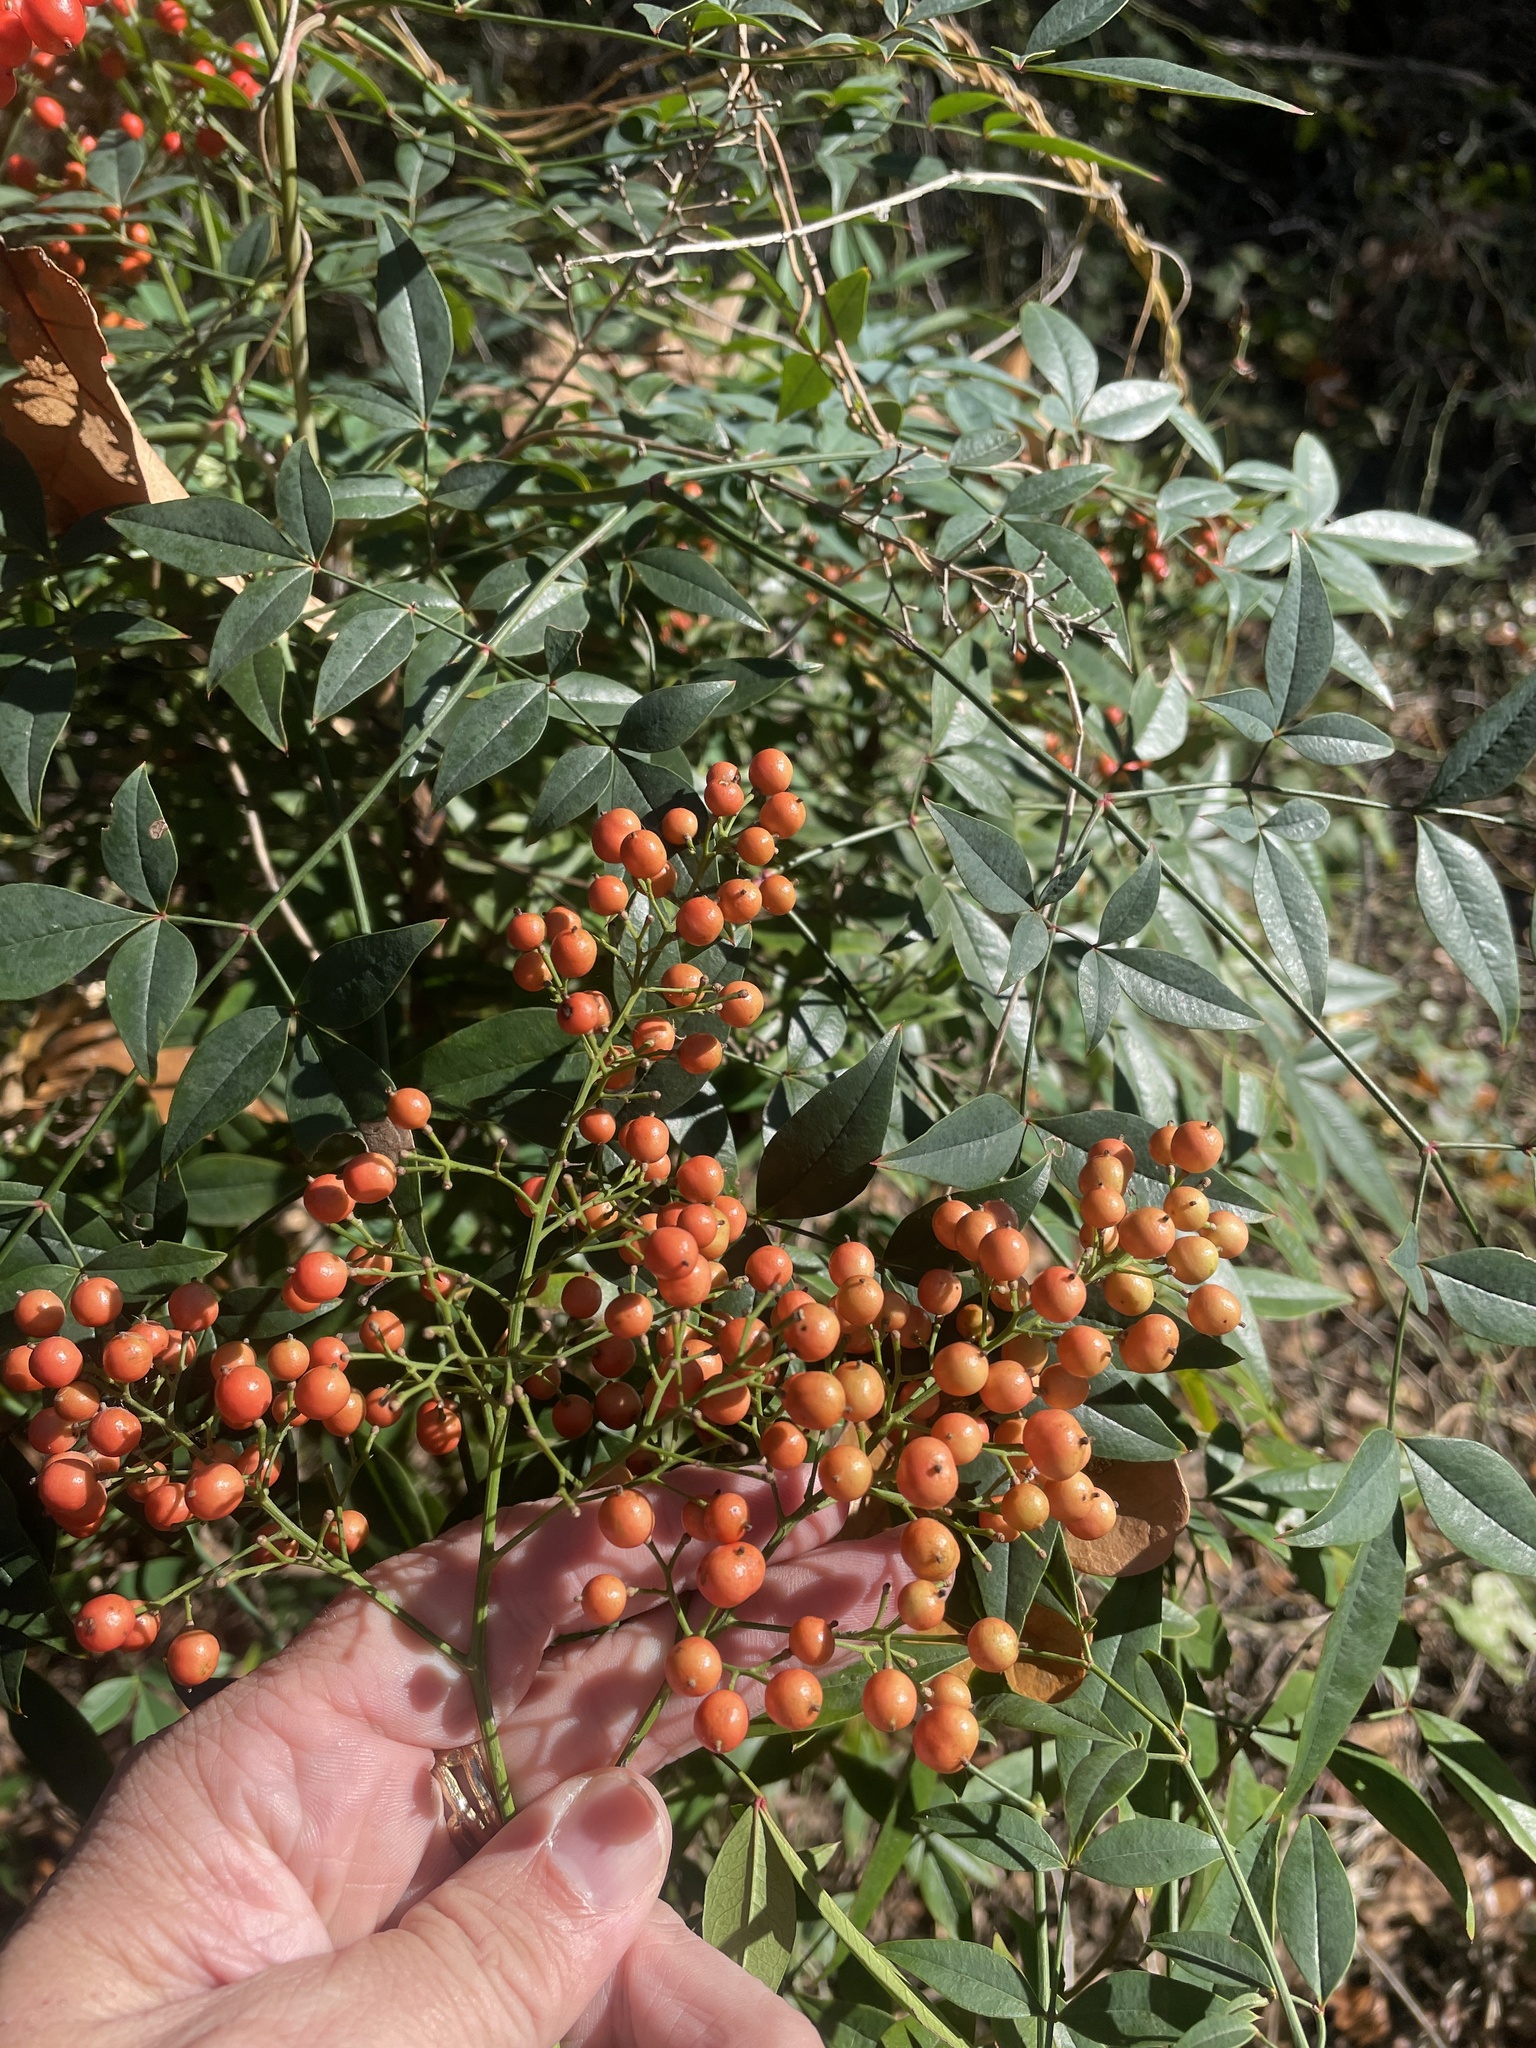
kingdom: Plantae
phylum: Tracheophyta
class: Magnoliopsida
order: Ranunculales
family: Berberidaceae
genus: Nandina
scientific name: Nandina domestica
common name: Sacred bamboo
